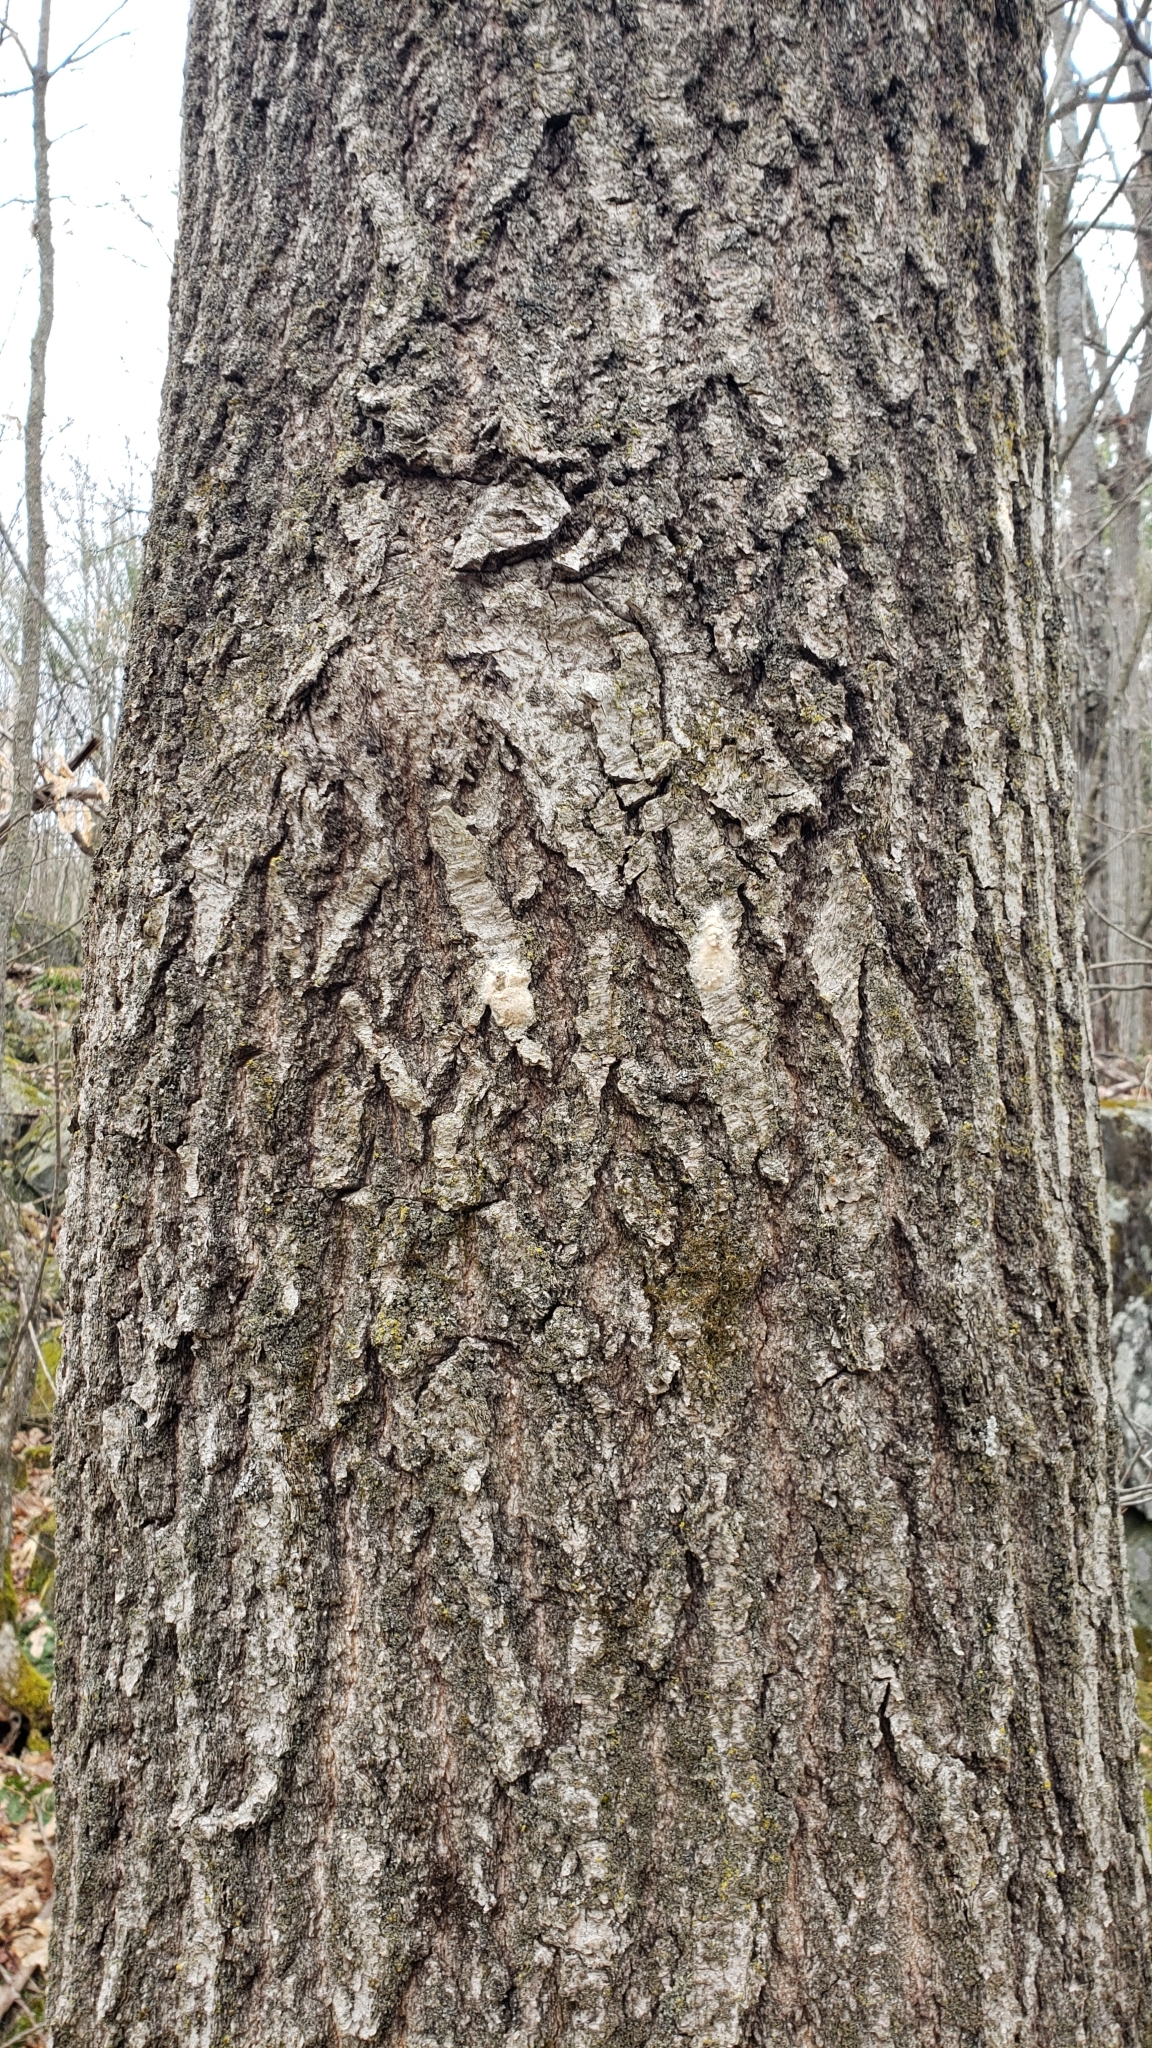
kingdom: Animalia
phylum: Arthropoda
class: Insecta
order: Lepidoptera
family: Erebidae
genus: Lymantria
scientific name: Lymantria dispar
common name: Gypsy moth
